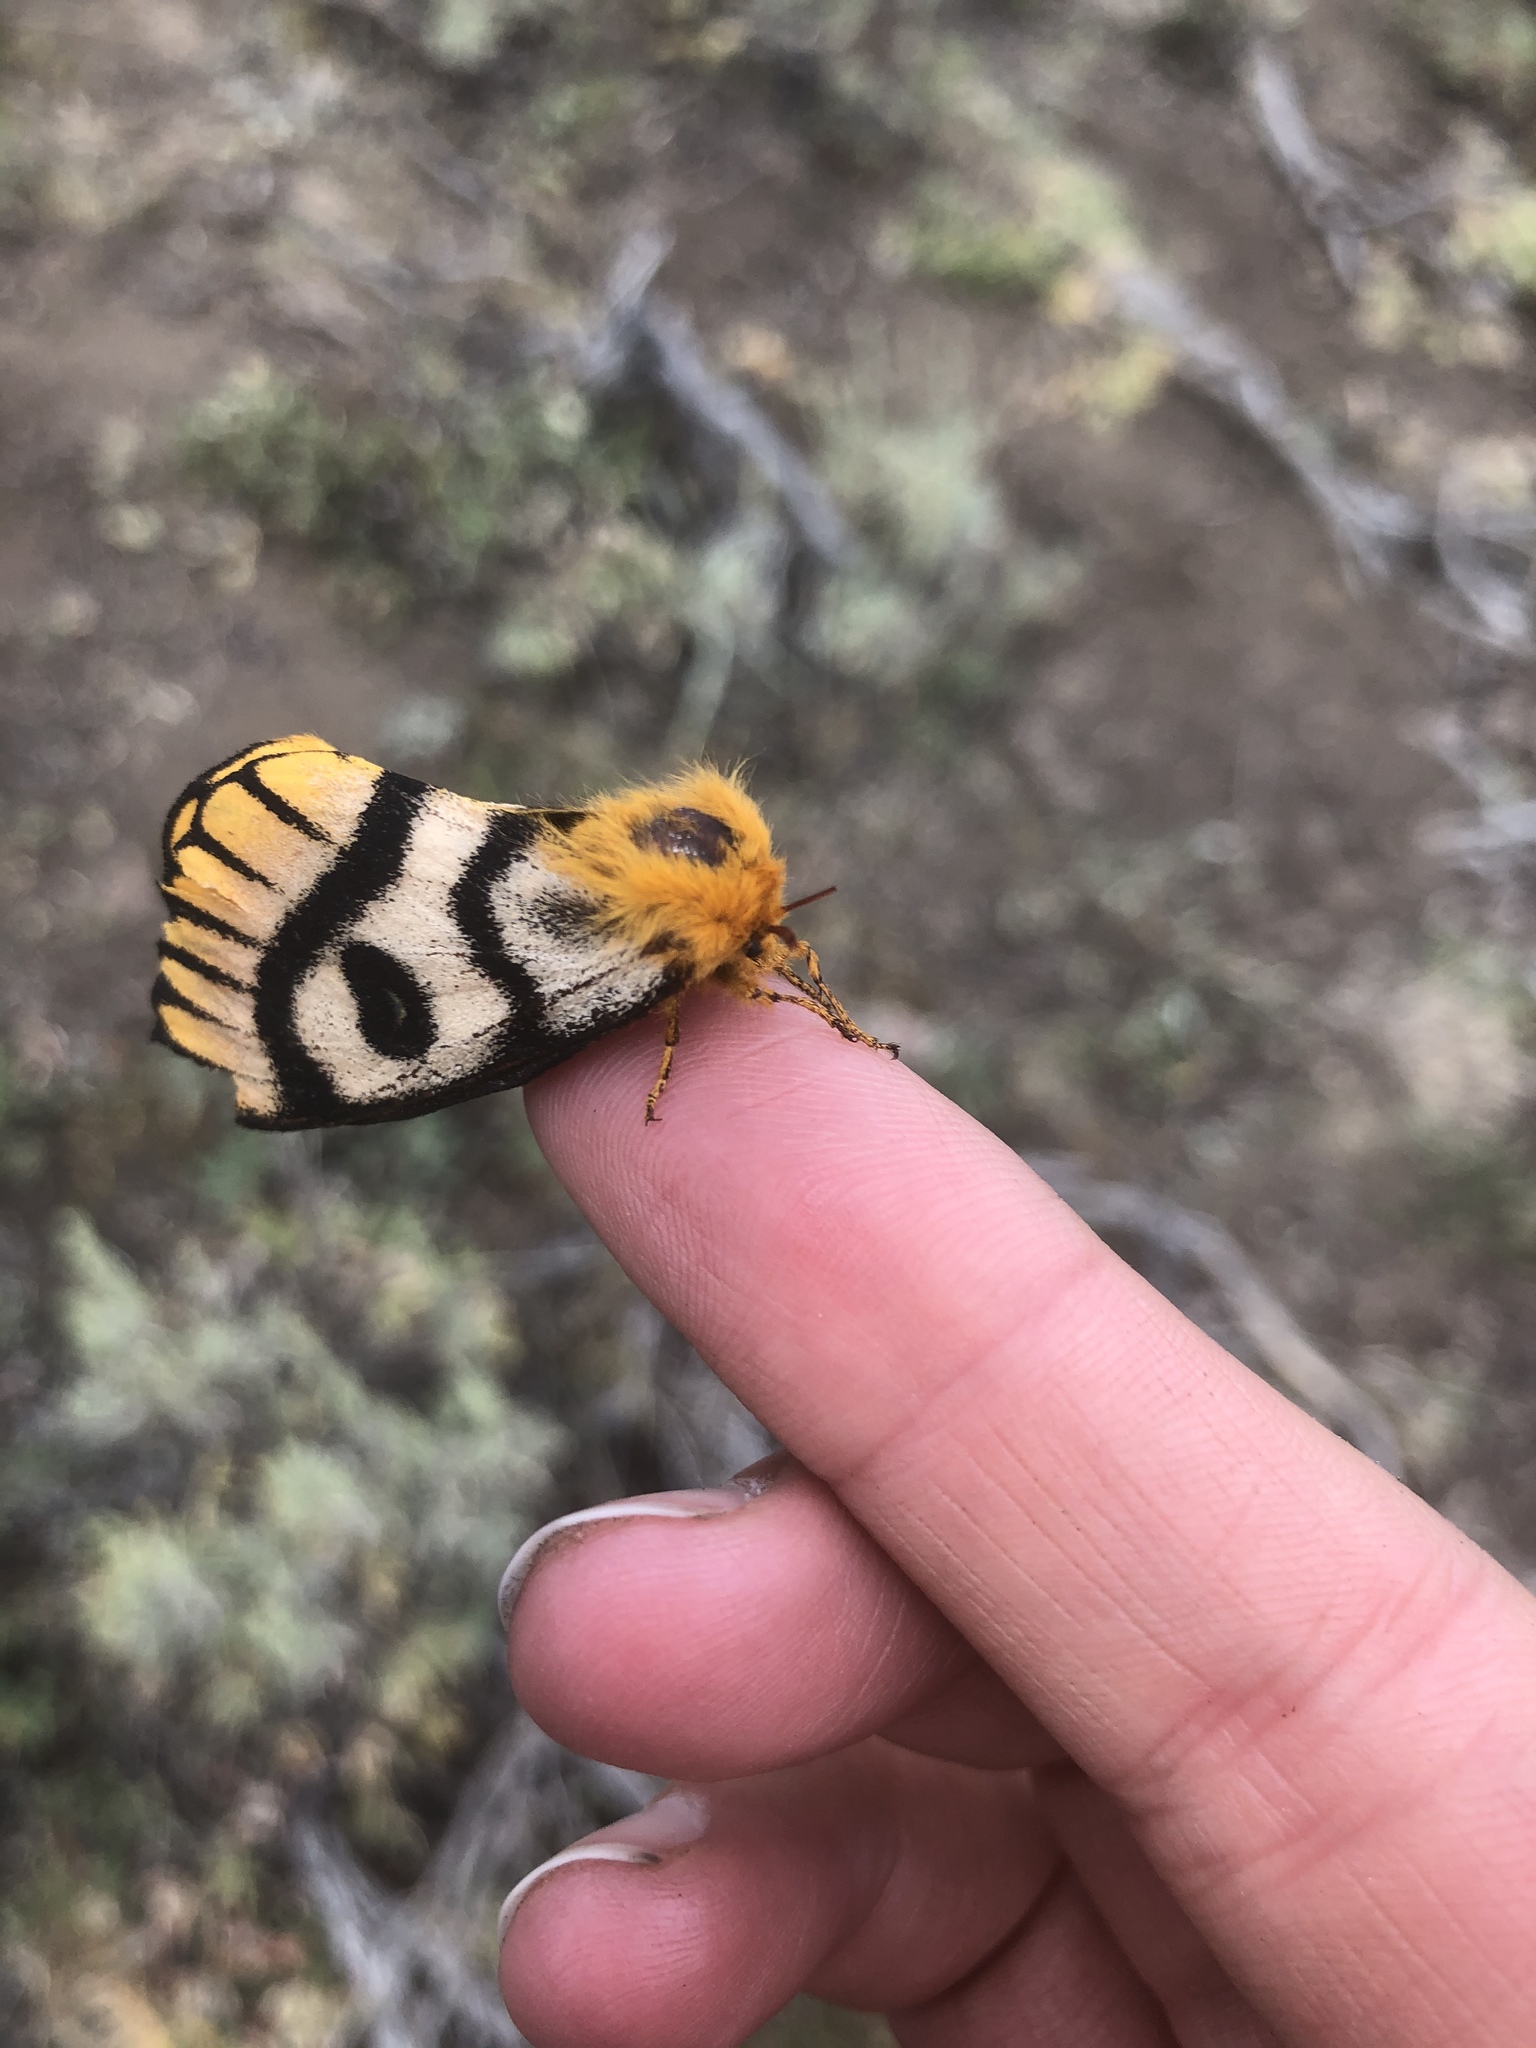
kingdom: Animalia
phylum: Arthropoda
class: Insecta
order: Lepidoptera
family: Saturniidae
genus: Hemileuca
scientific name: Hemileuca nutalli
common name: Nuttall's sheepmoth
